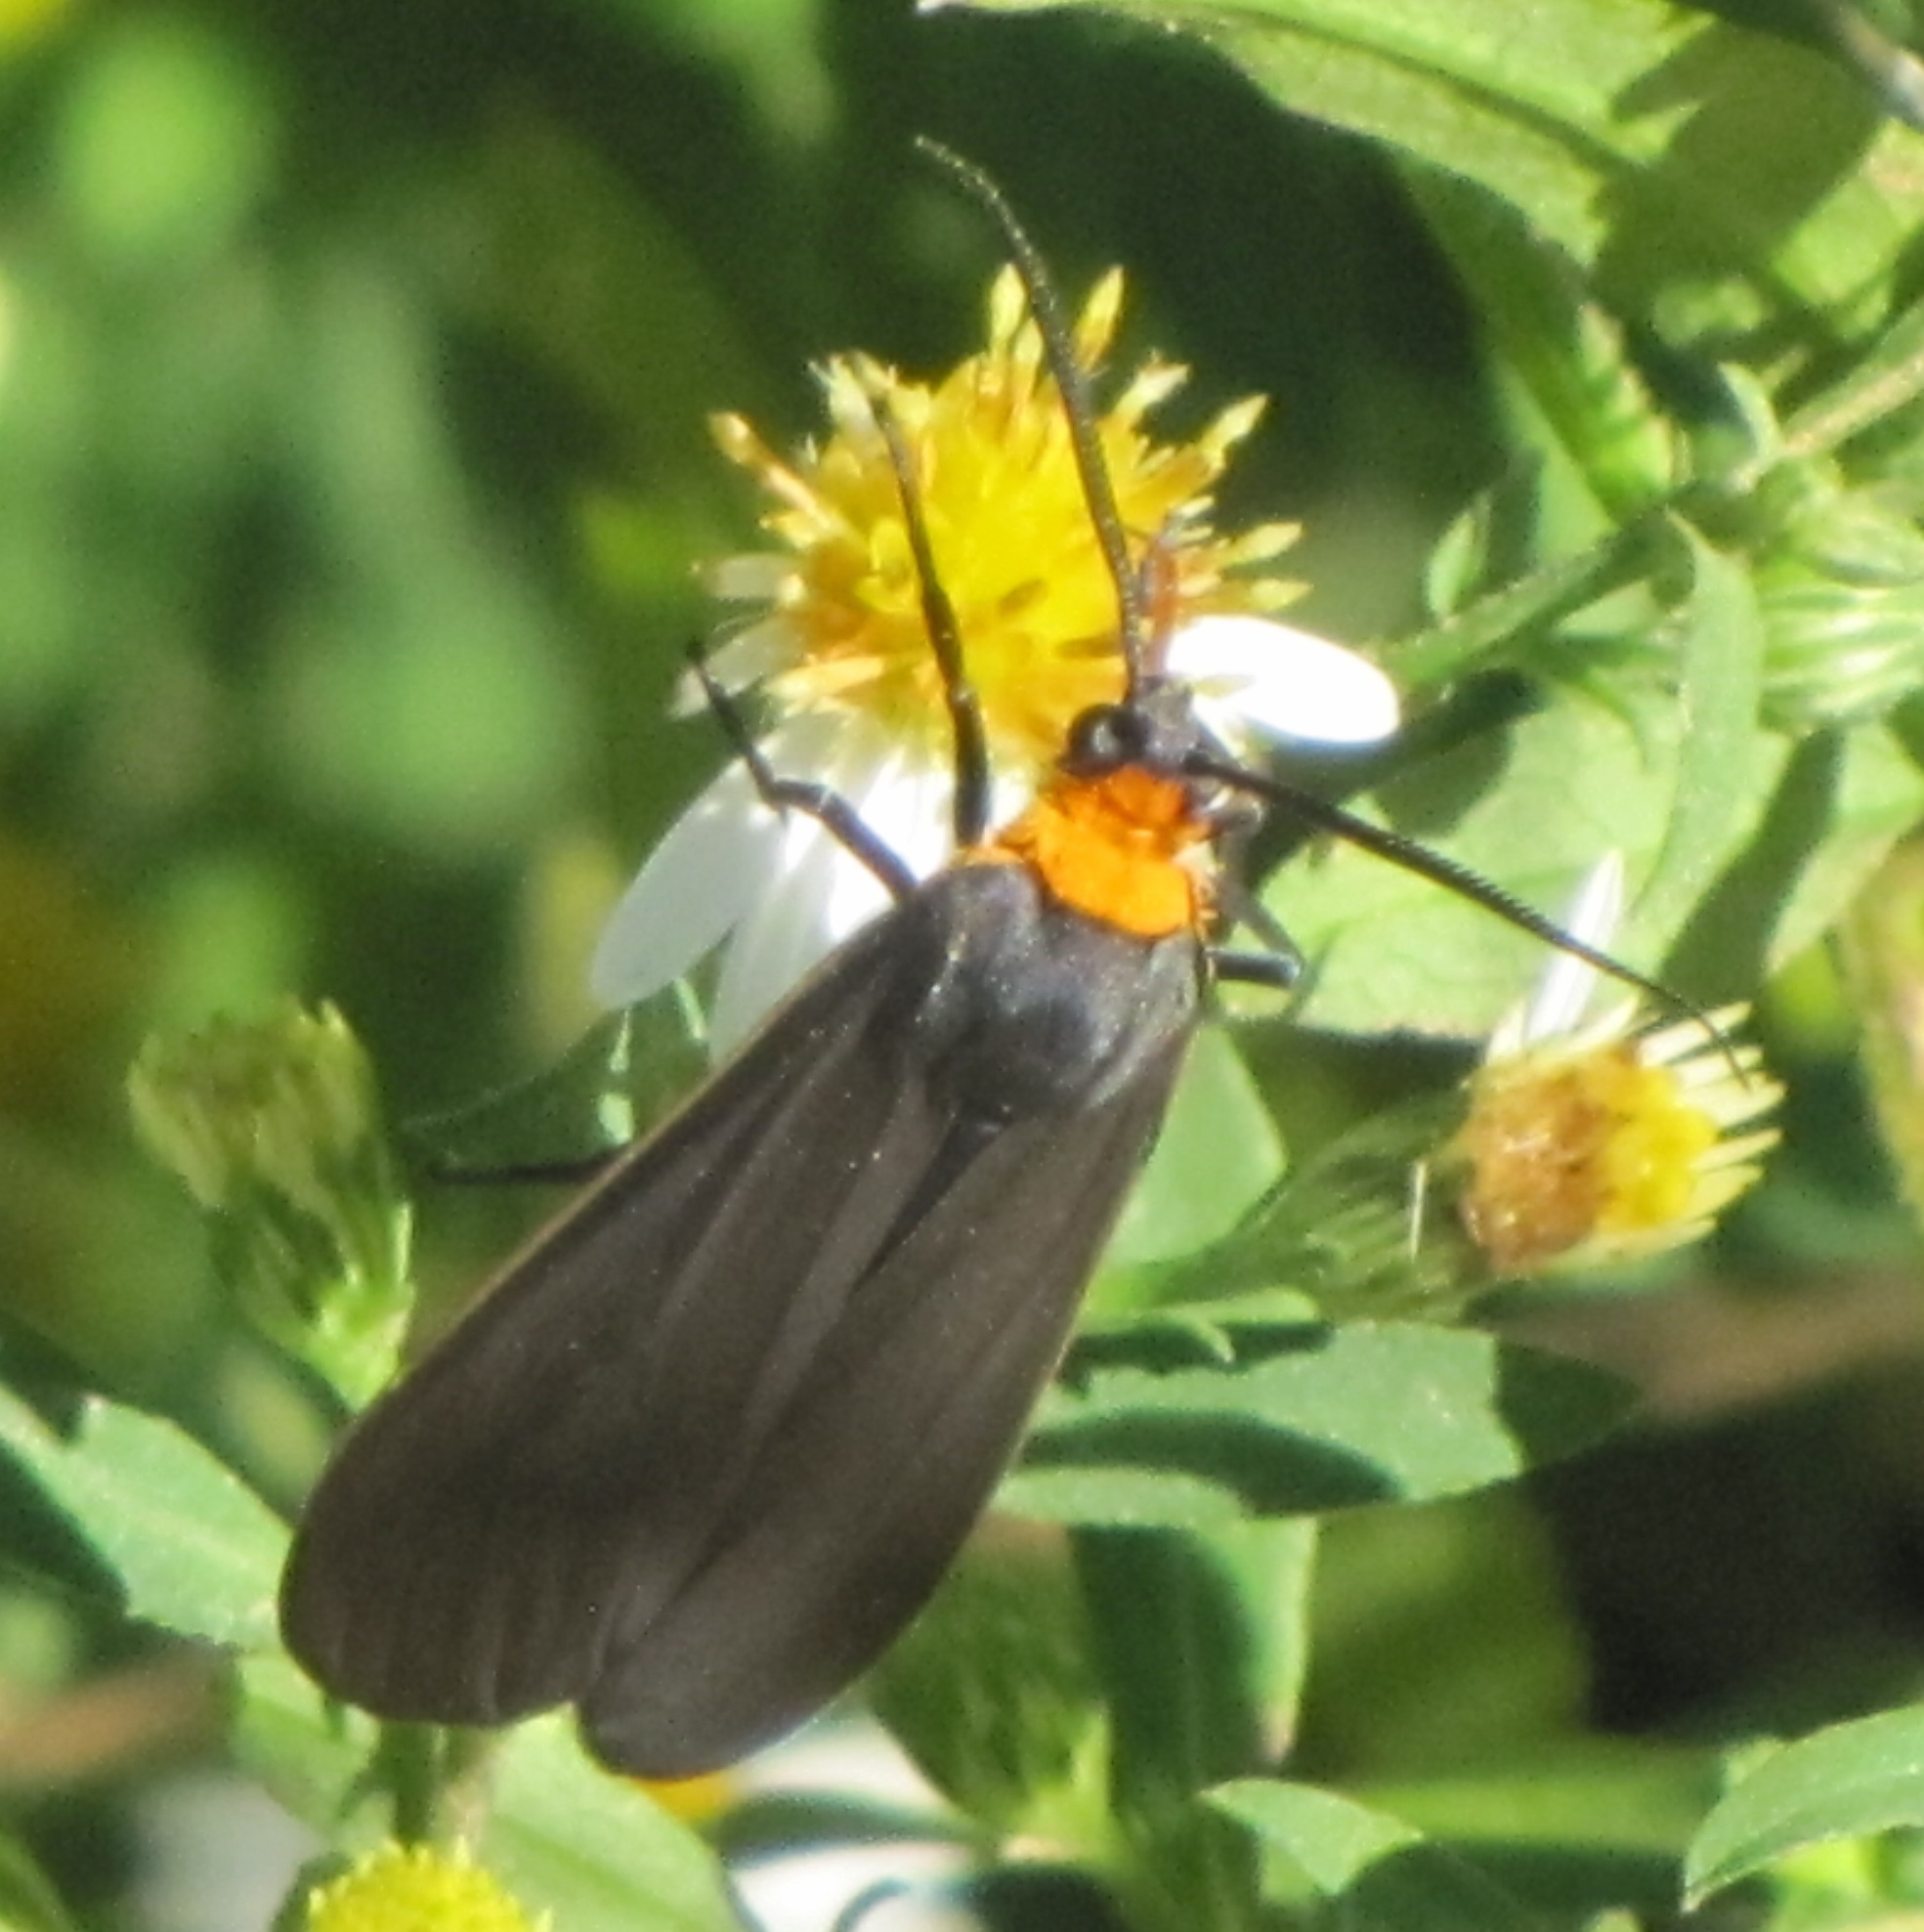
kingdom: Animalia
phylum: Arthropoda
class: Insecta
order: Lepidoptera
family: Erebidae
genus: Cisseps
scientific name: Cisseps fulvicollis
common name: Yellow-collared scape moth
